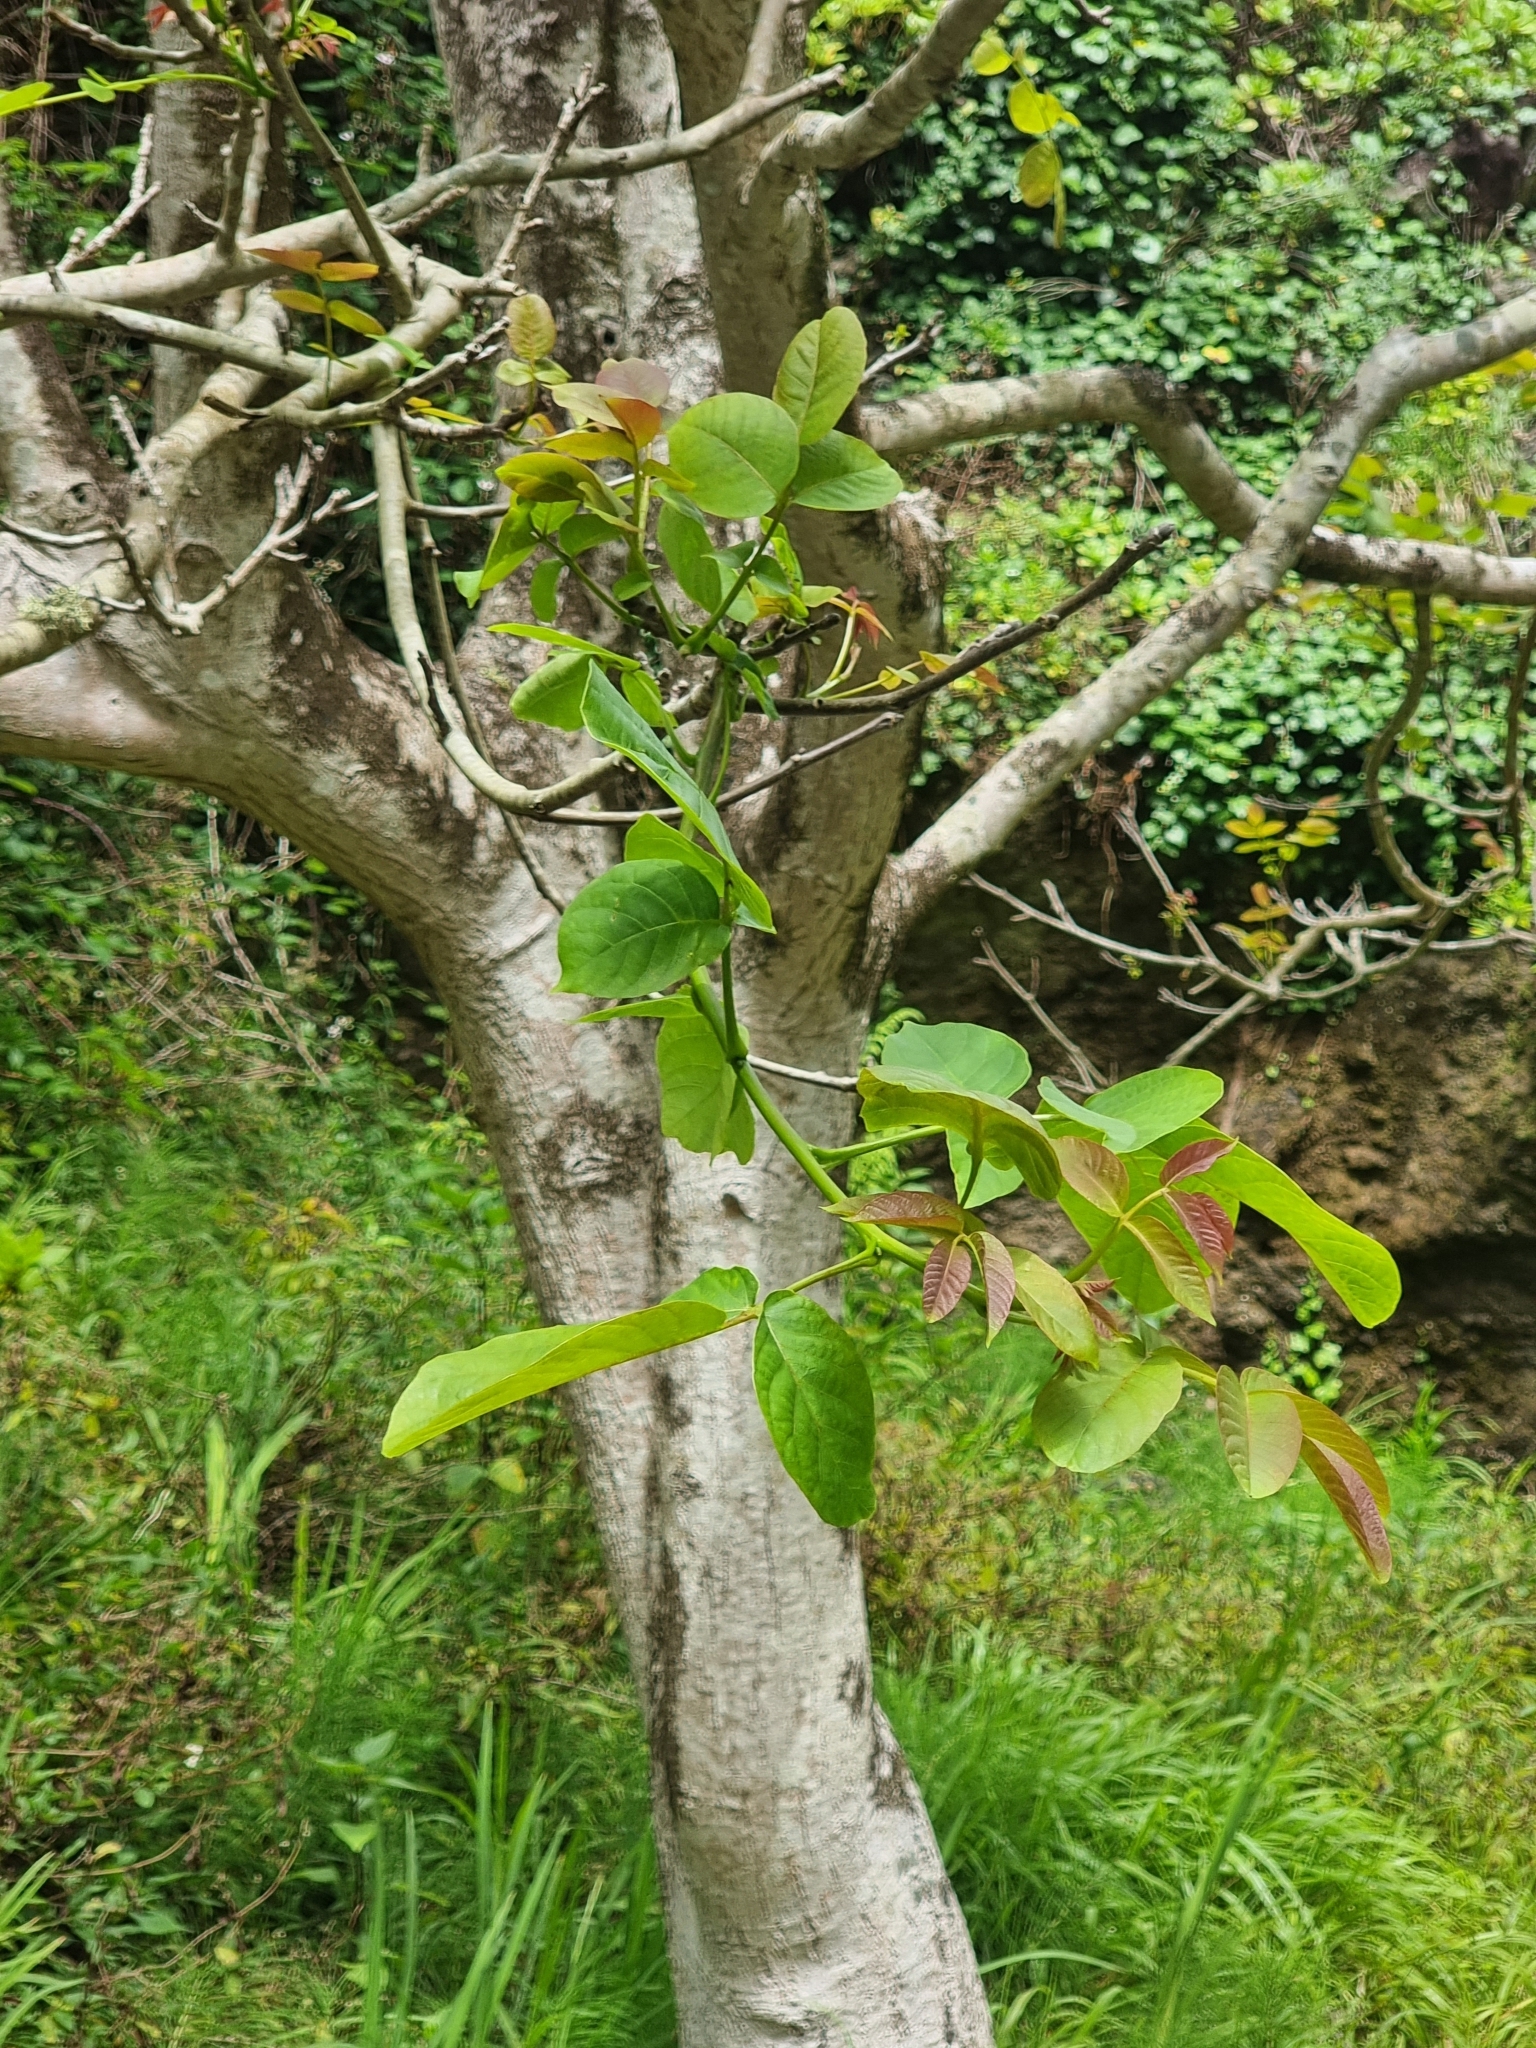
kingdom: Plantae
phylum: Tracheophyta
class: Magnoliopsida
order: Fagales
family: Juglandaceae
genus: Juglans
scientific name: Juglans regia
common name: Walnut
